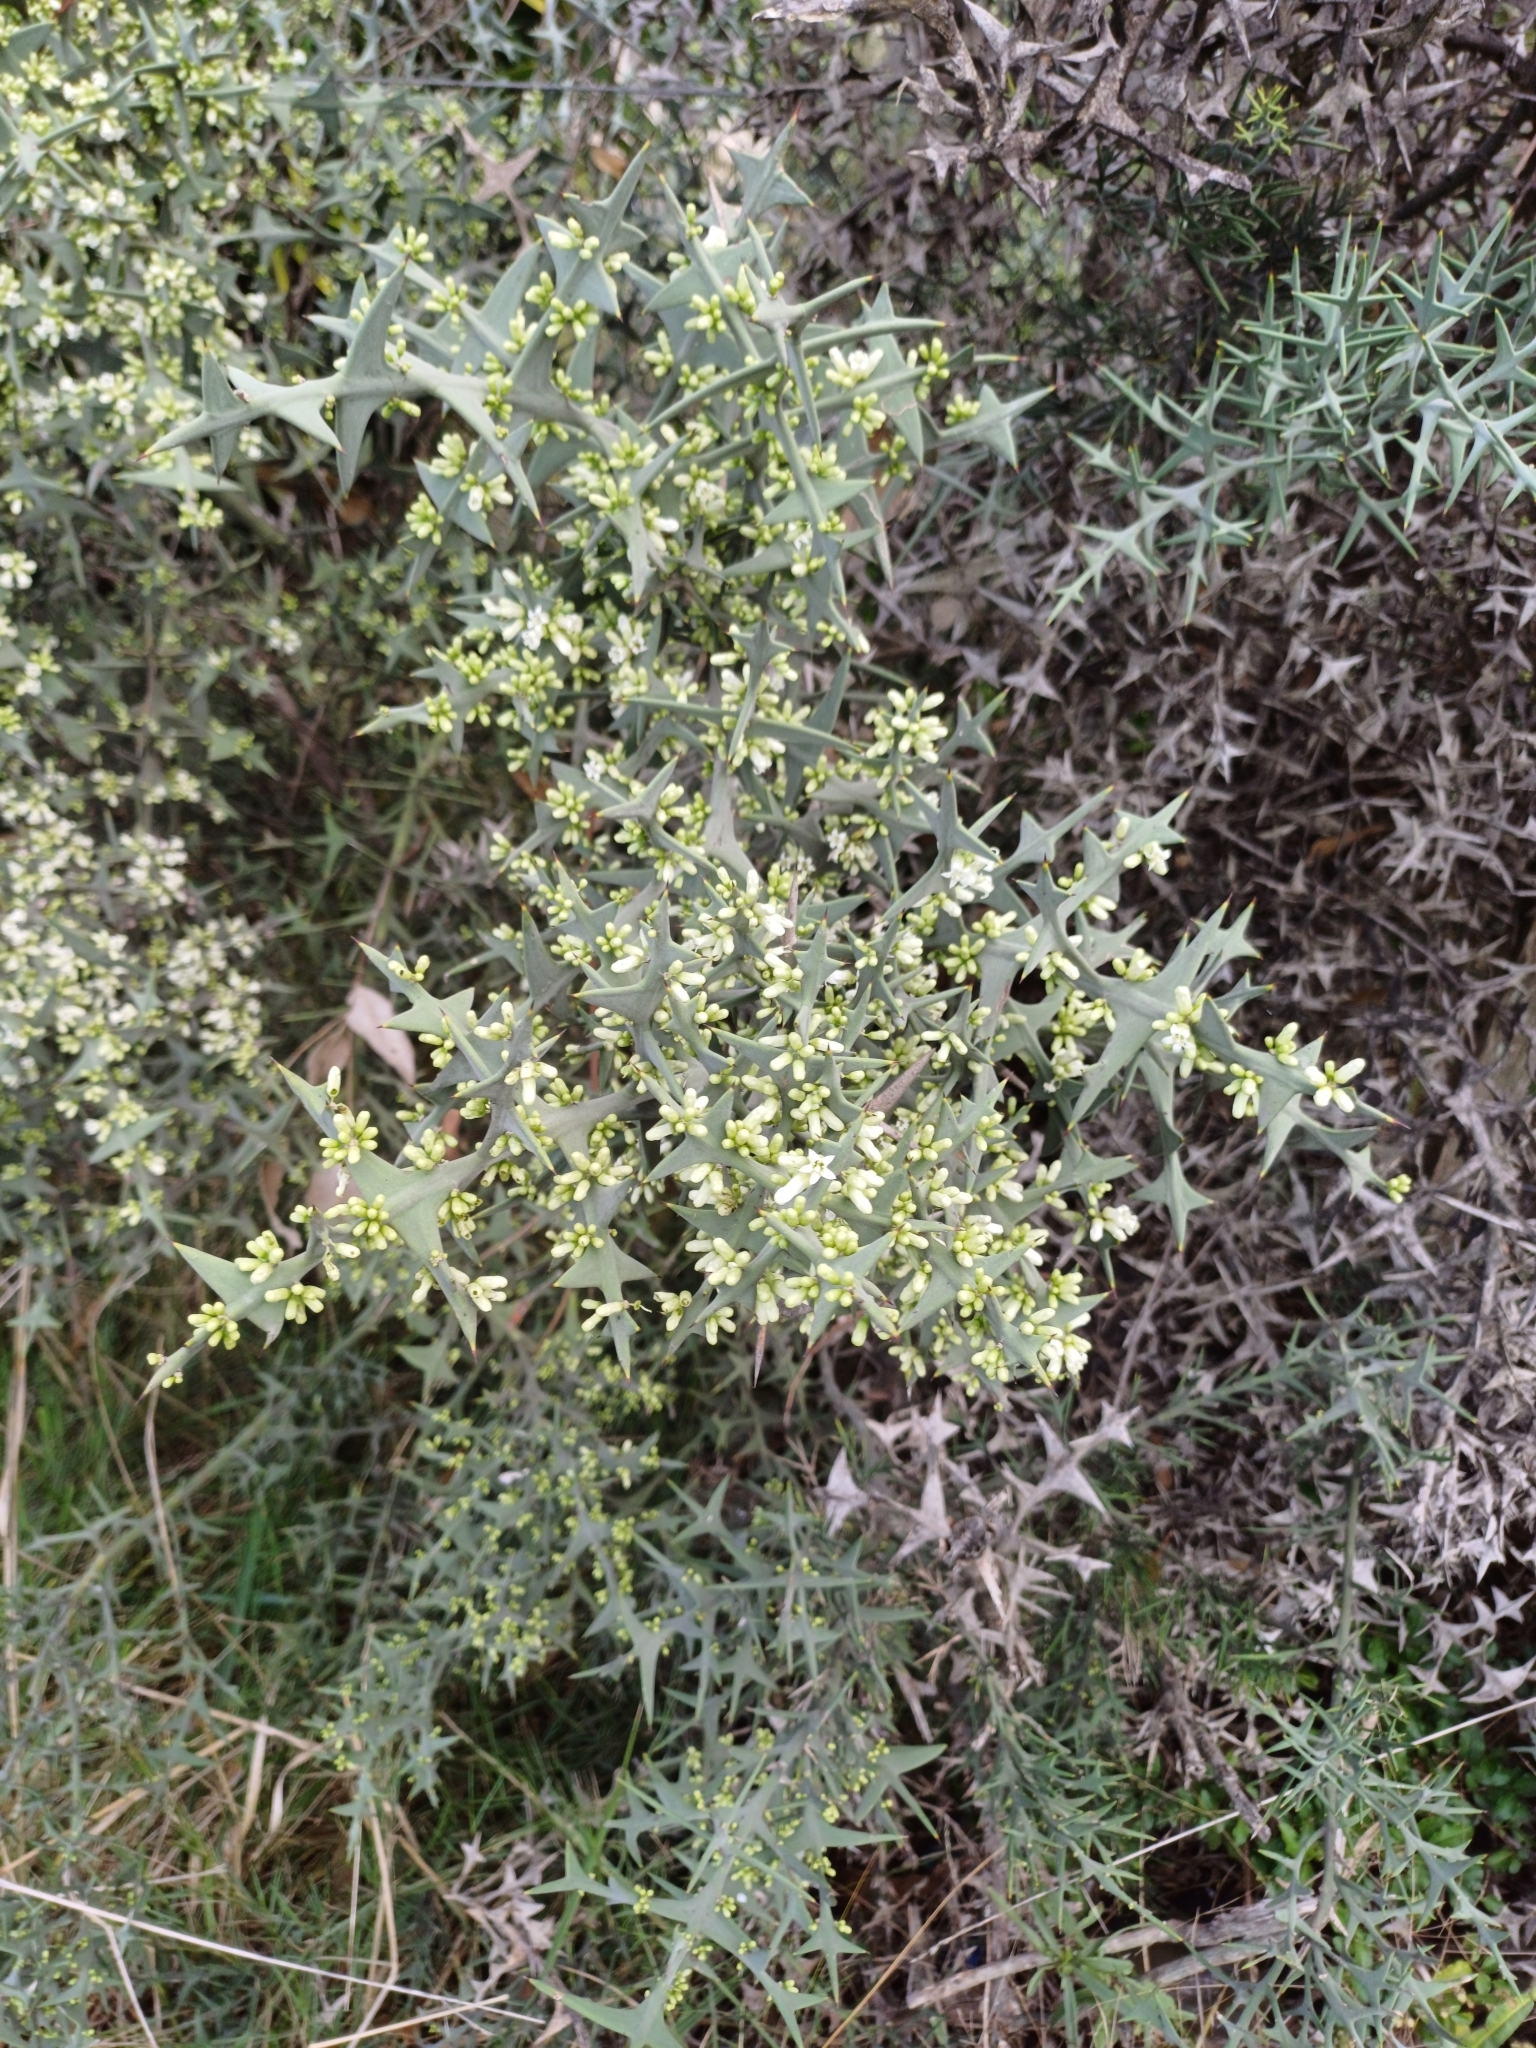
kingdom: Plantae
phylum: Tracheophyta
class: Magnoliopsida
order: Rosales
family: Rhamnaceae
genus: Colletia
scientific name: Colletia paradoxa
